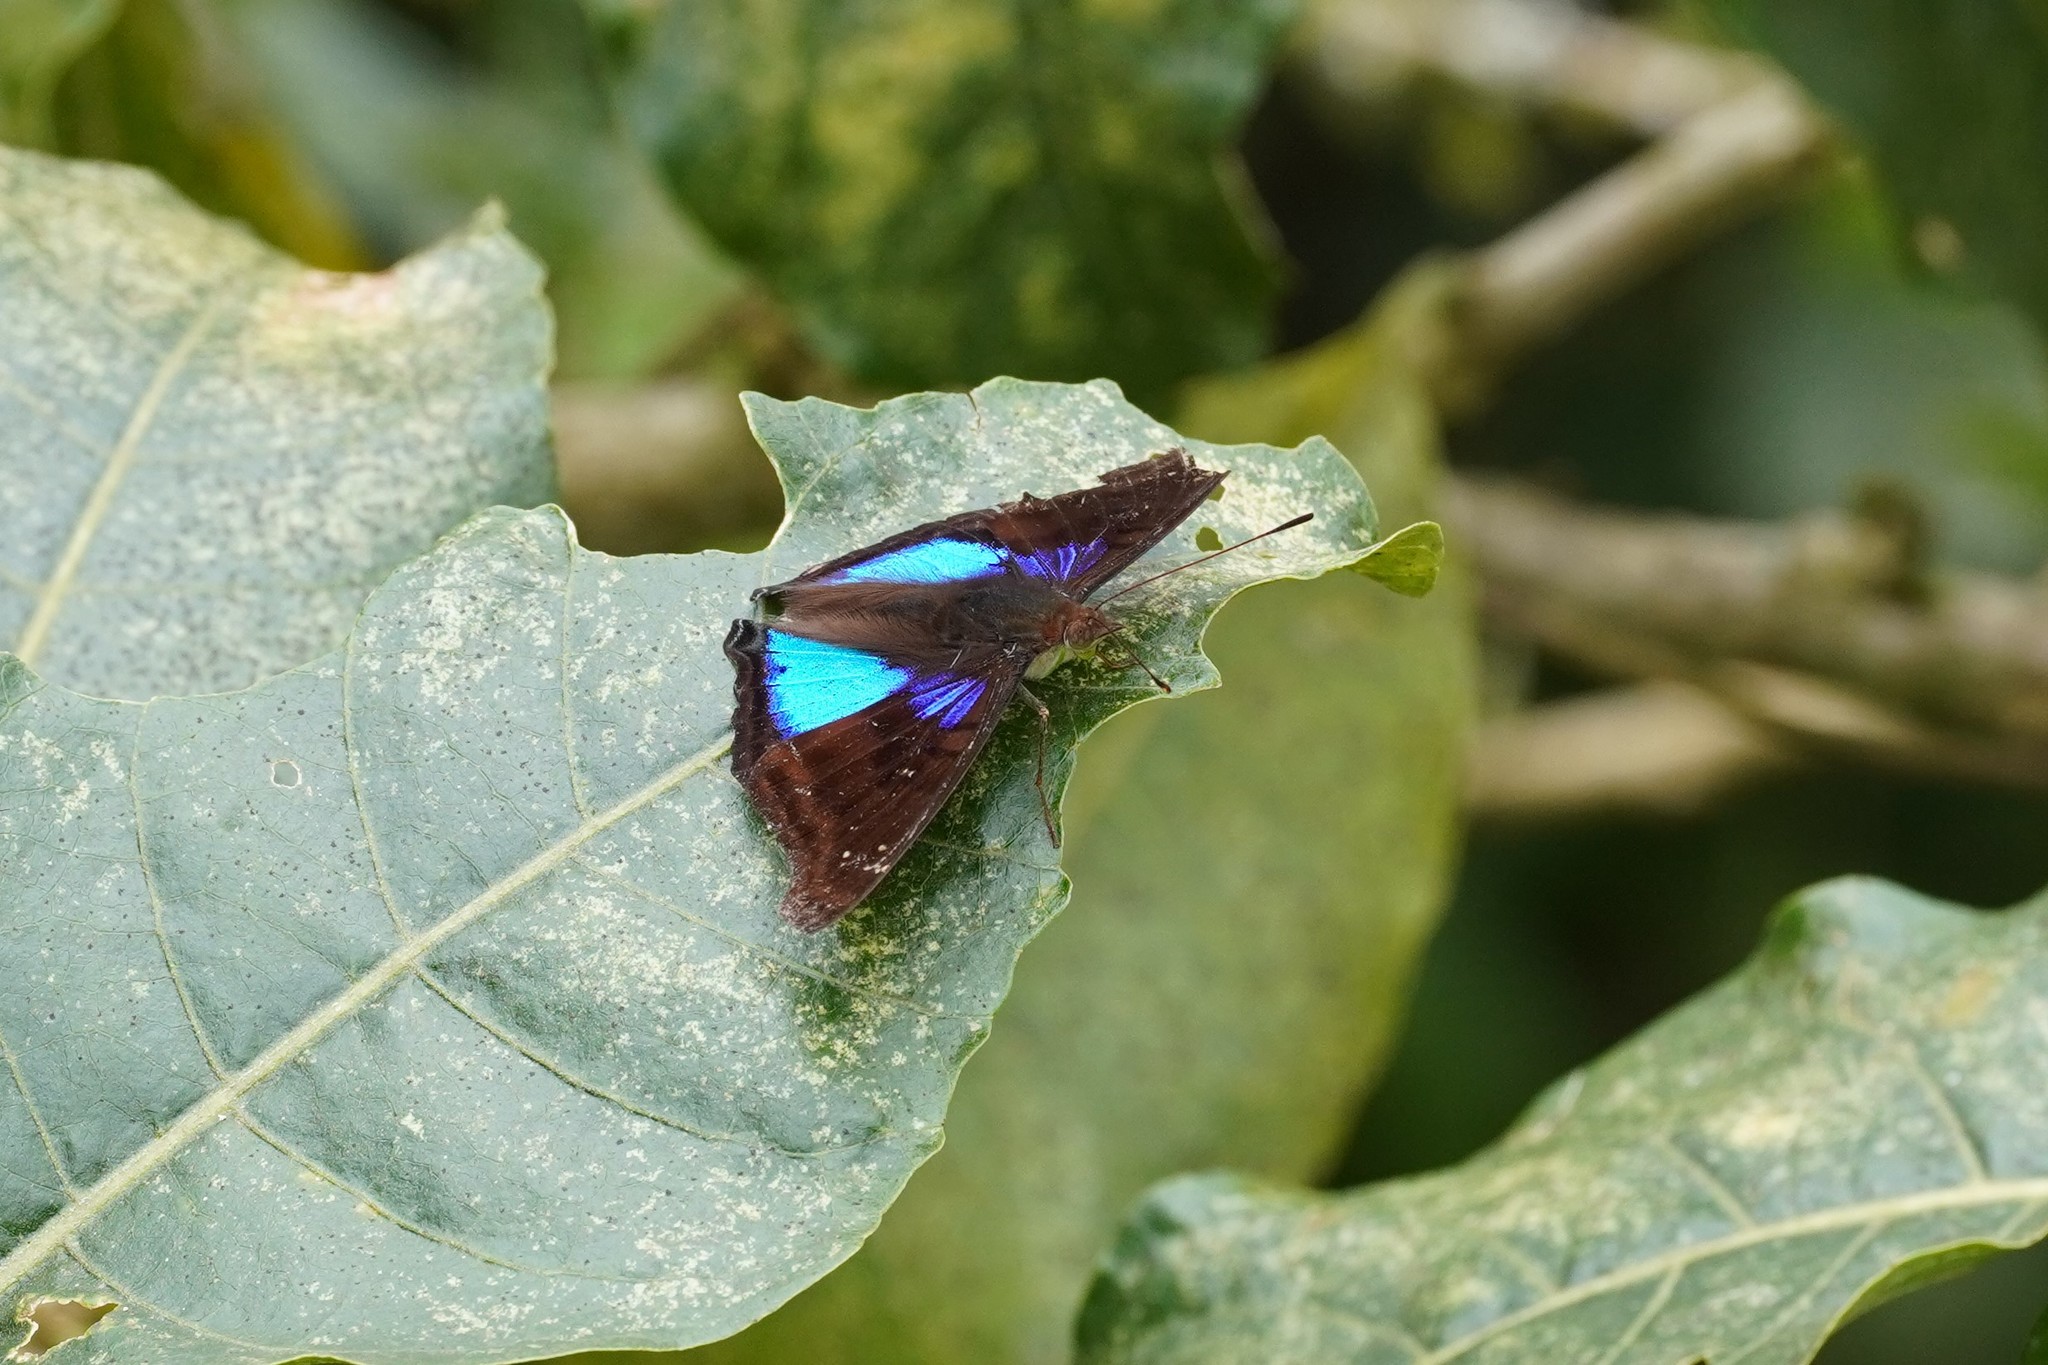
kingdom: Animalia
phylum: Arthropoda
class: Insecta
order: Lepidoptera
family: Nymphalidae
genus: Doxocopa
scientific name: Doxocopa cyane
